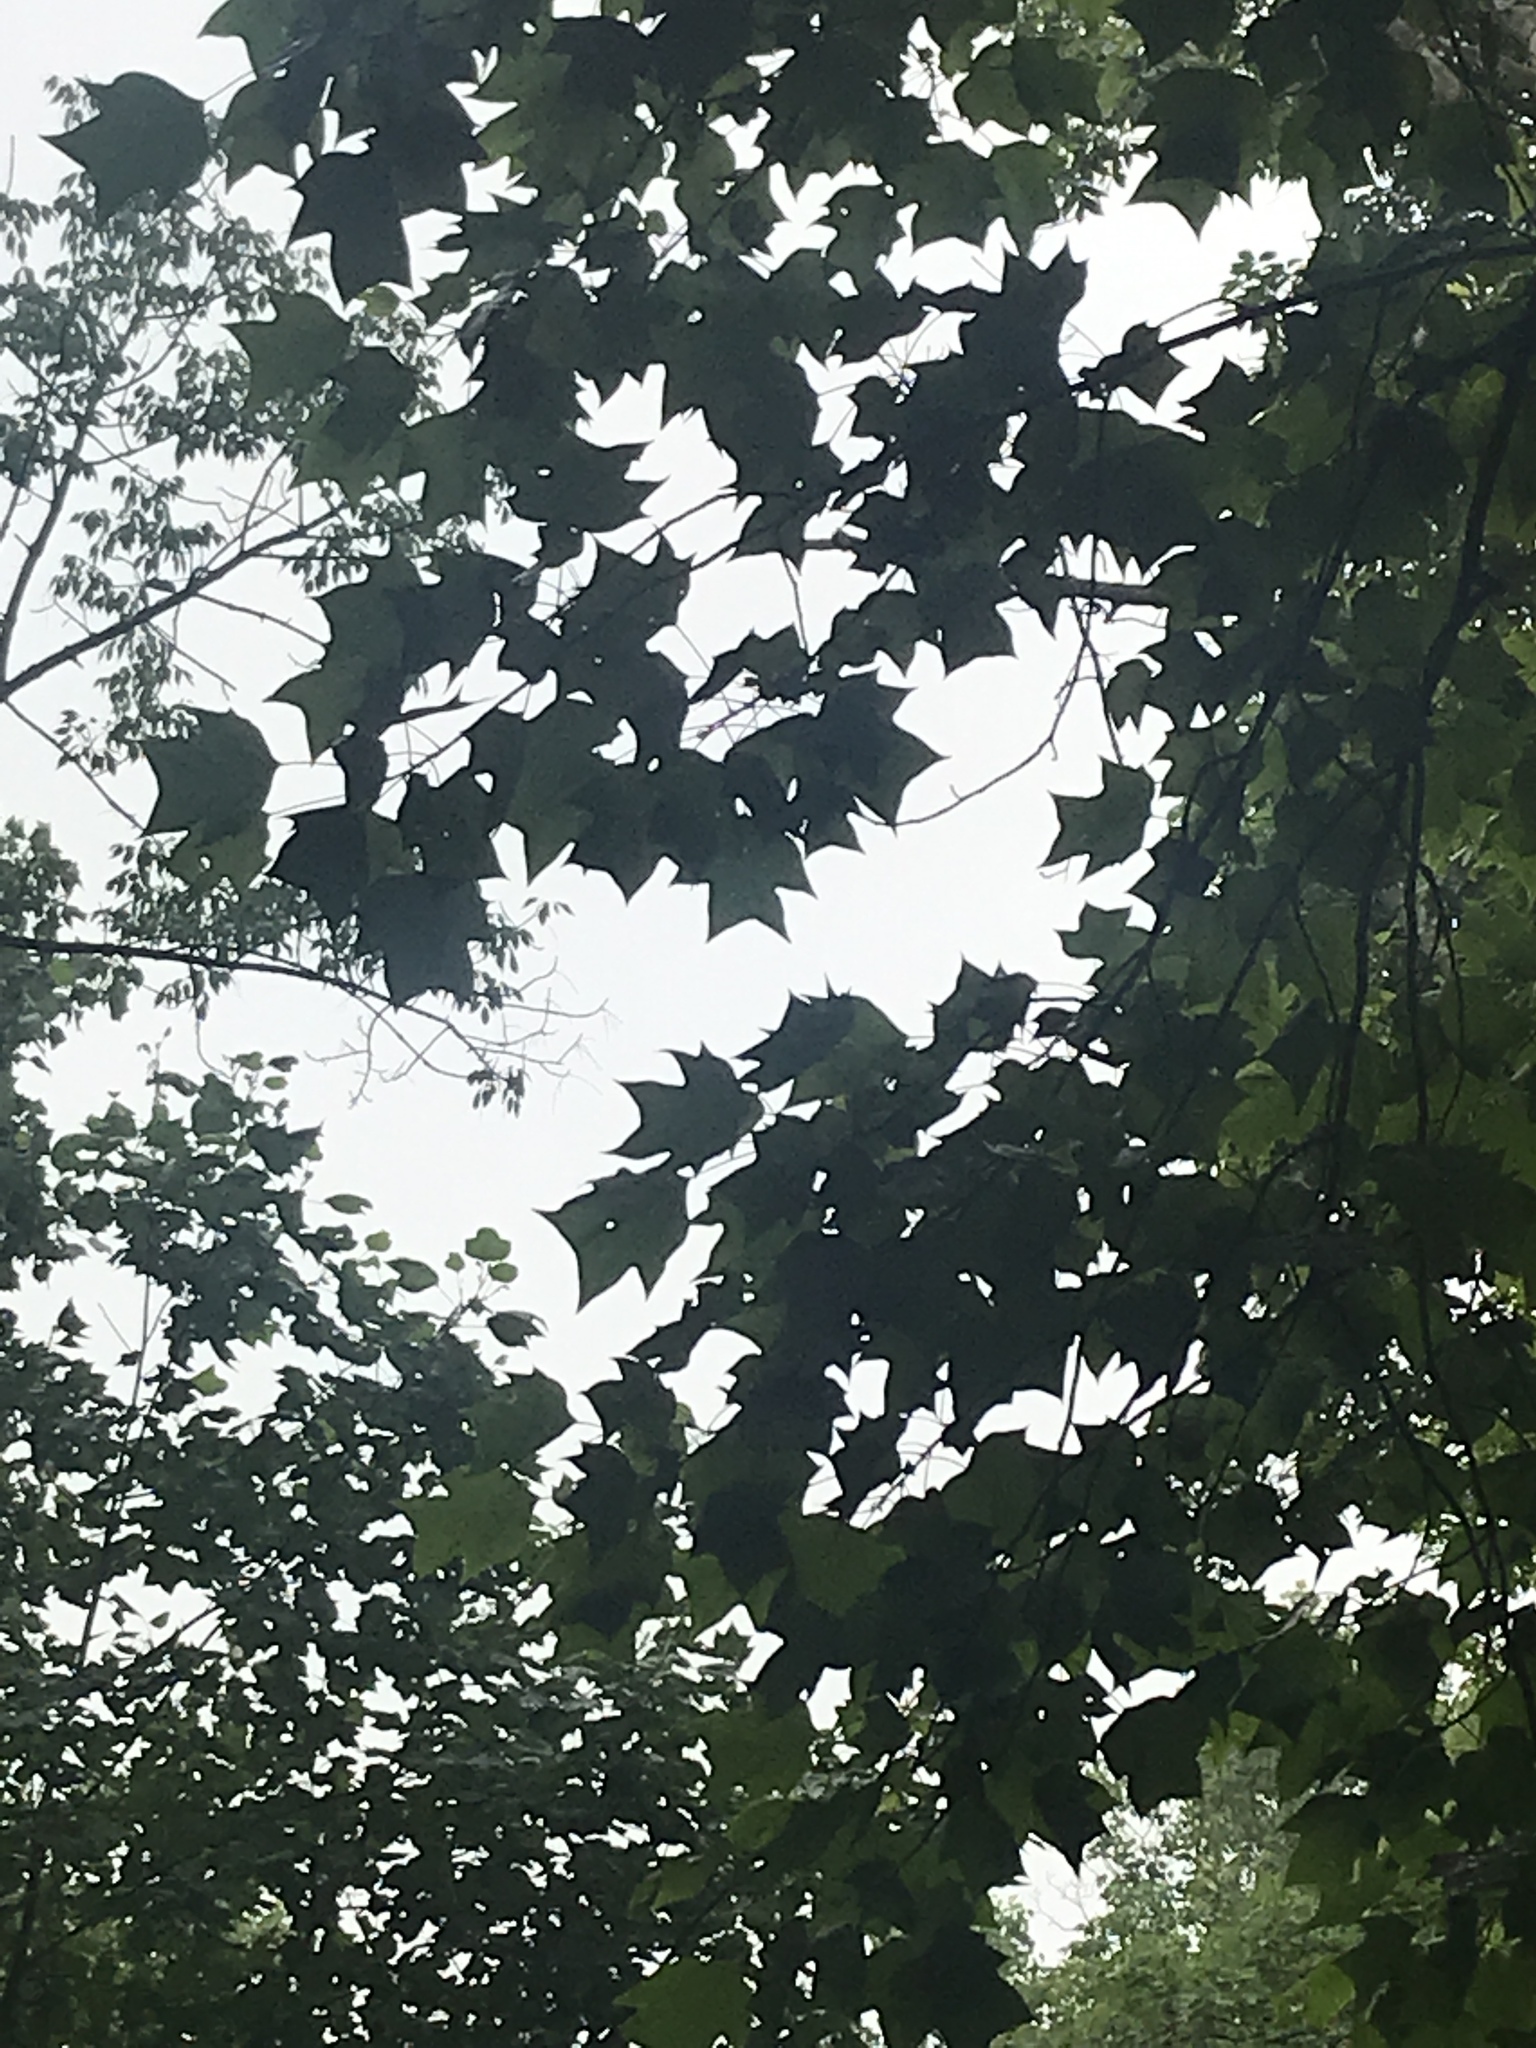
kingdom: Plantae
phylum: Tracheophyta
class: Magnoliopsida
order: Magnoliales
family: Magnoliaceae
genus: Liriodendron
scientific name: Liriodendron tulipifera
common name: Tulip tree
